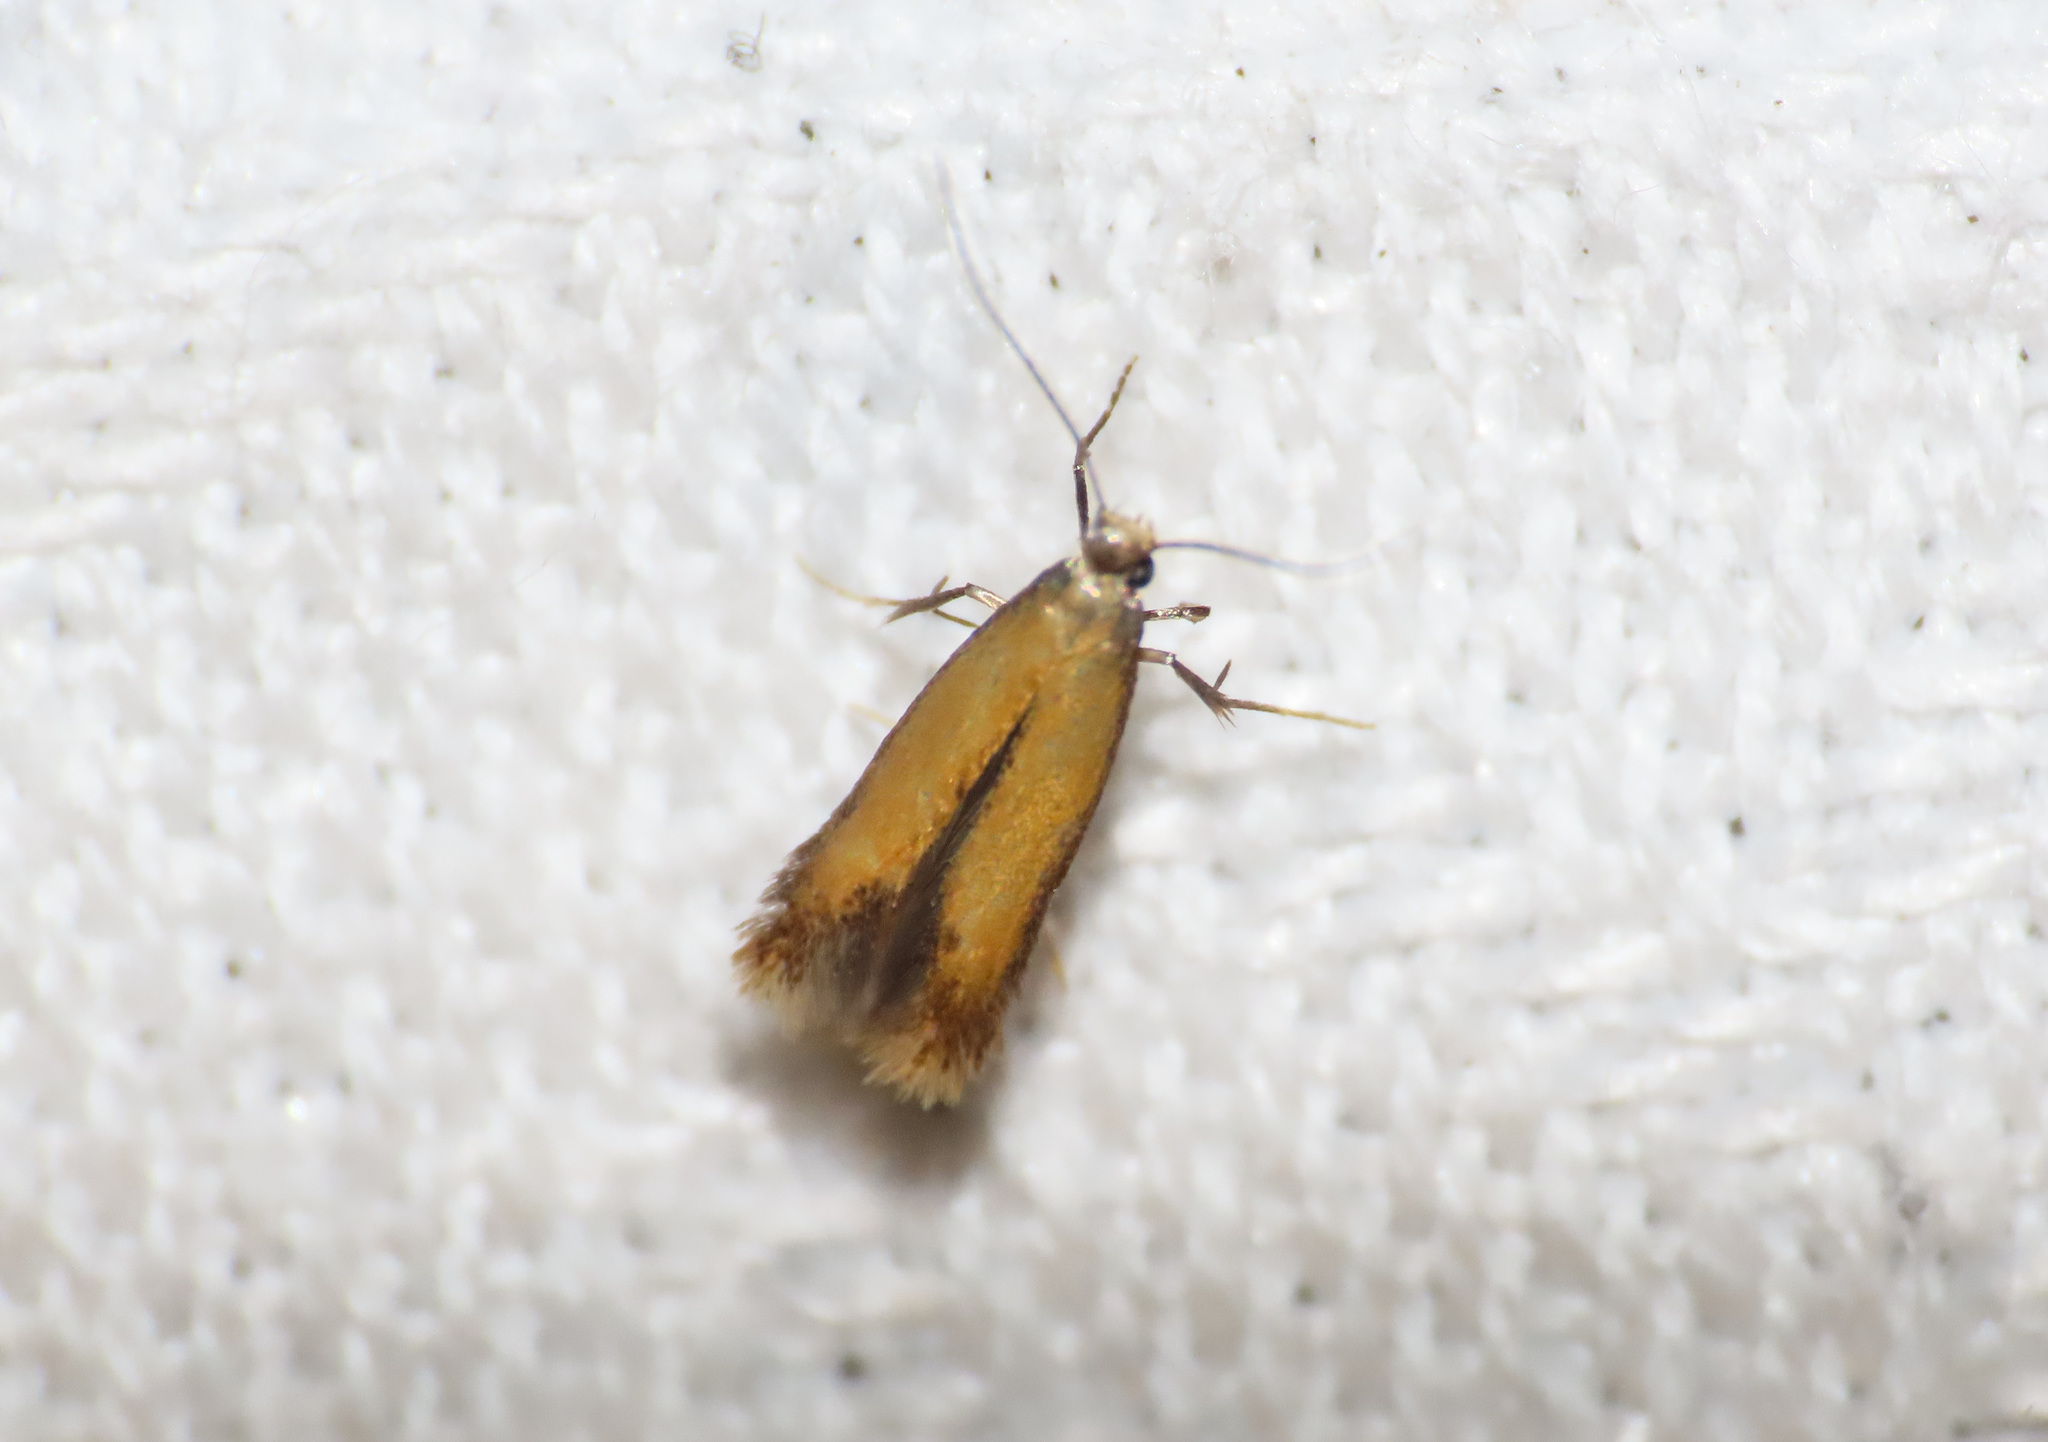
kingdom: Animalia
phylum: Arthropoda
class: Insecta
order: Lepidoptera
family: Tischeriidae
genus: Coptotriche
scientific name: Coptotriche marginea
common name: Bordered carl
